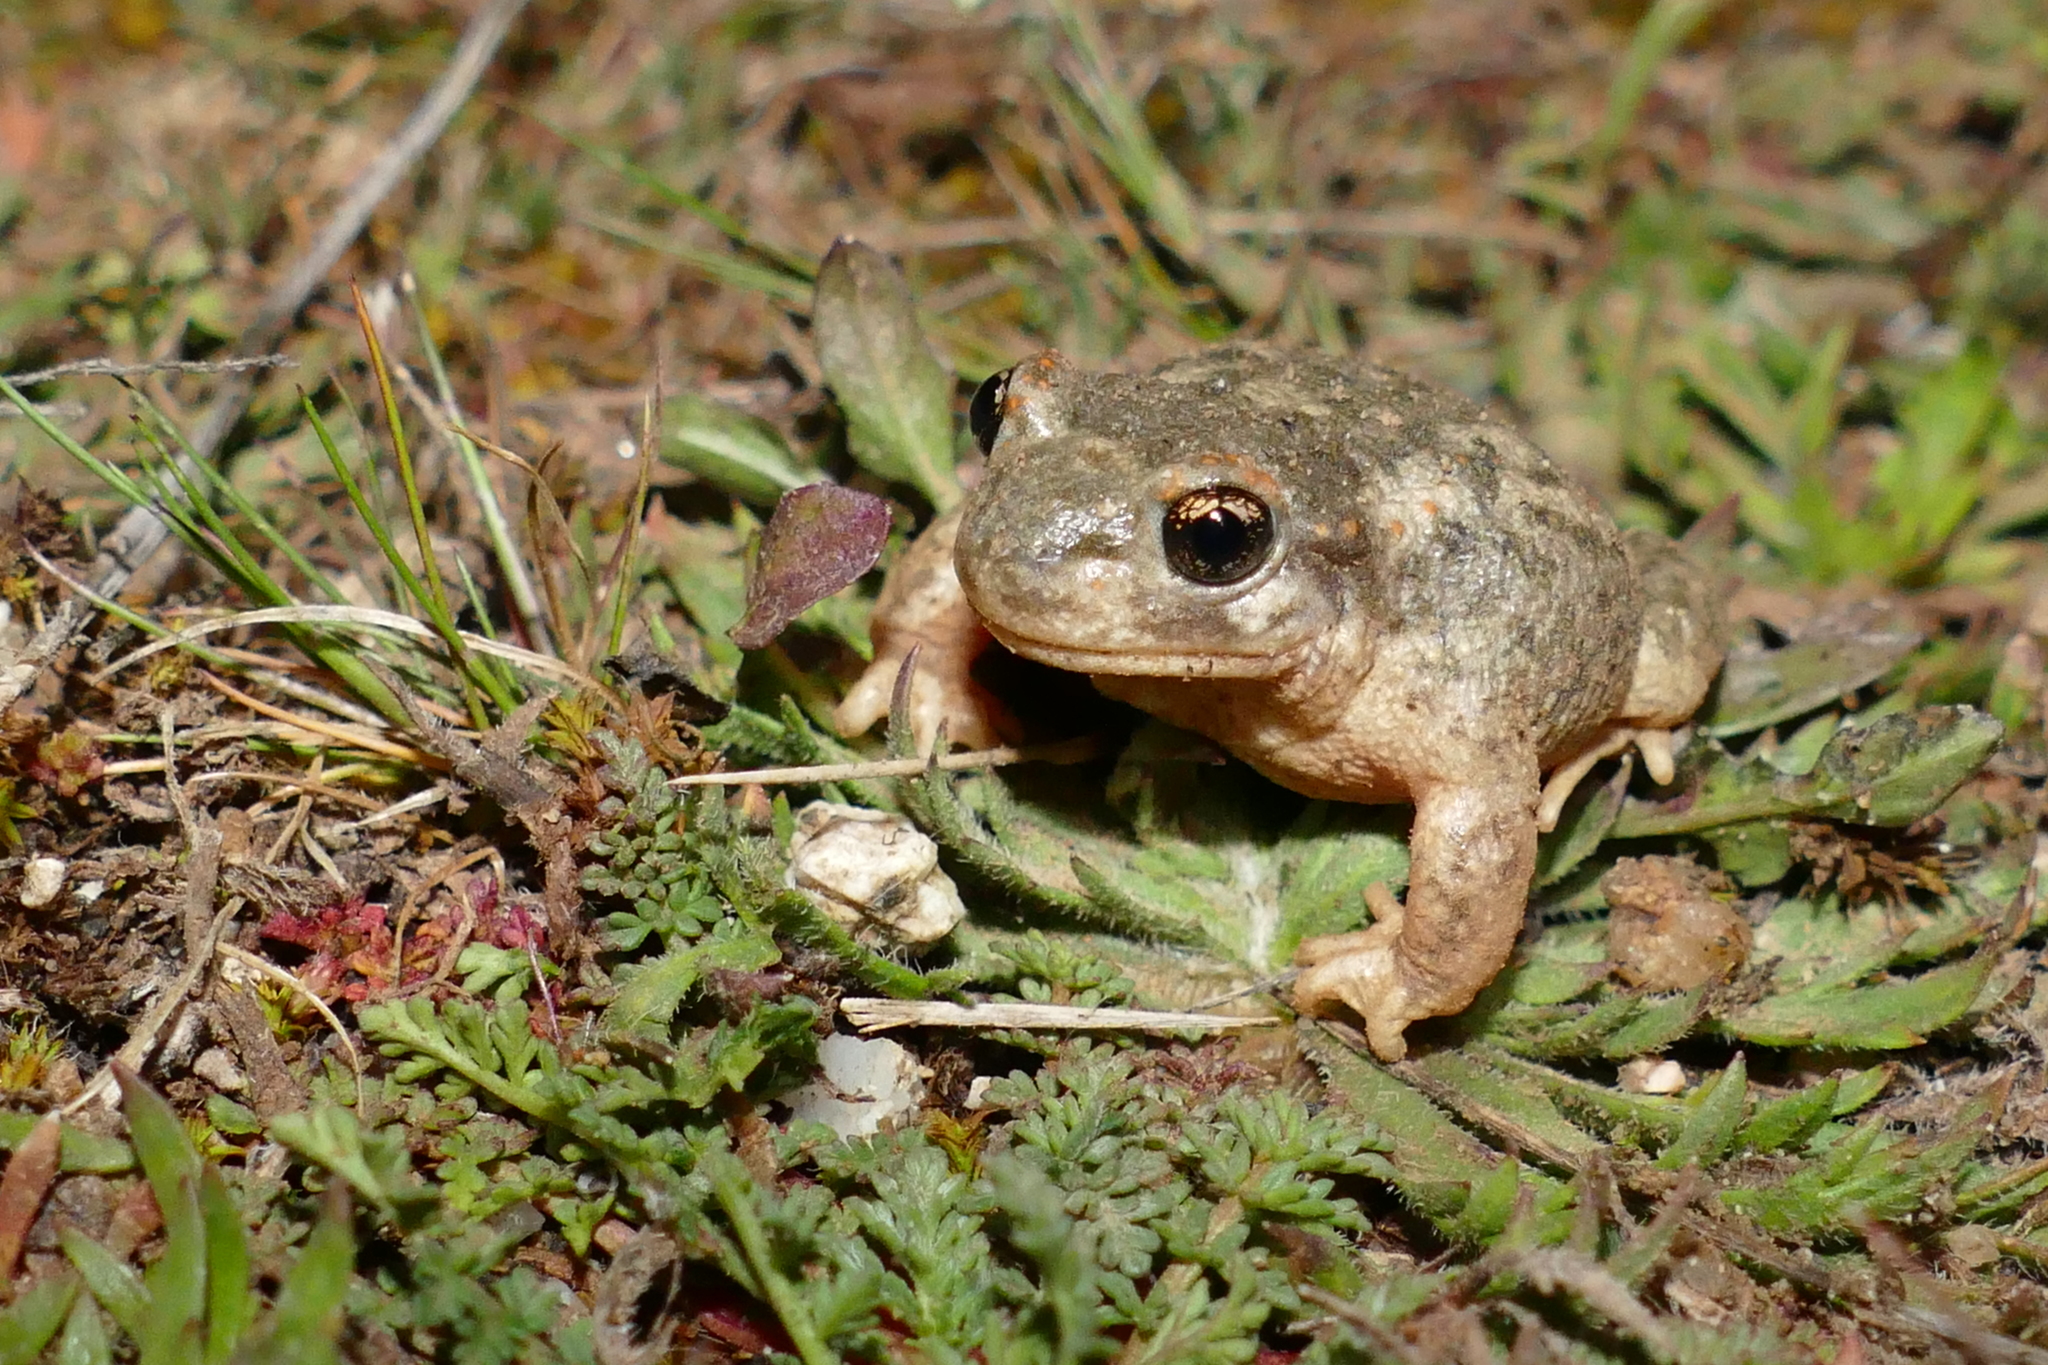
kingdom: Animalia
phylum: Chordata
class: Amphibia
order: Anura
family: Alytidae
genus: Alytes
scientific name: Alytes cisternasii
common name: Iberian midwife toad
